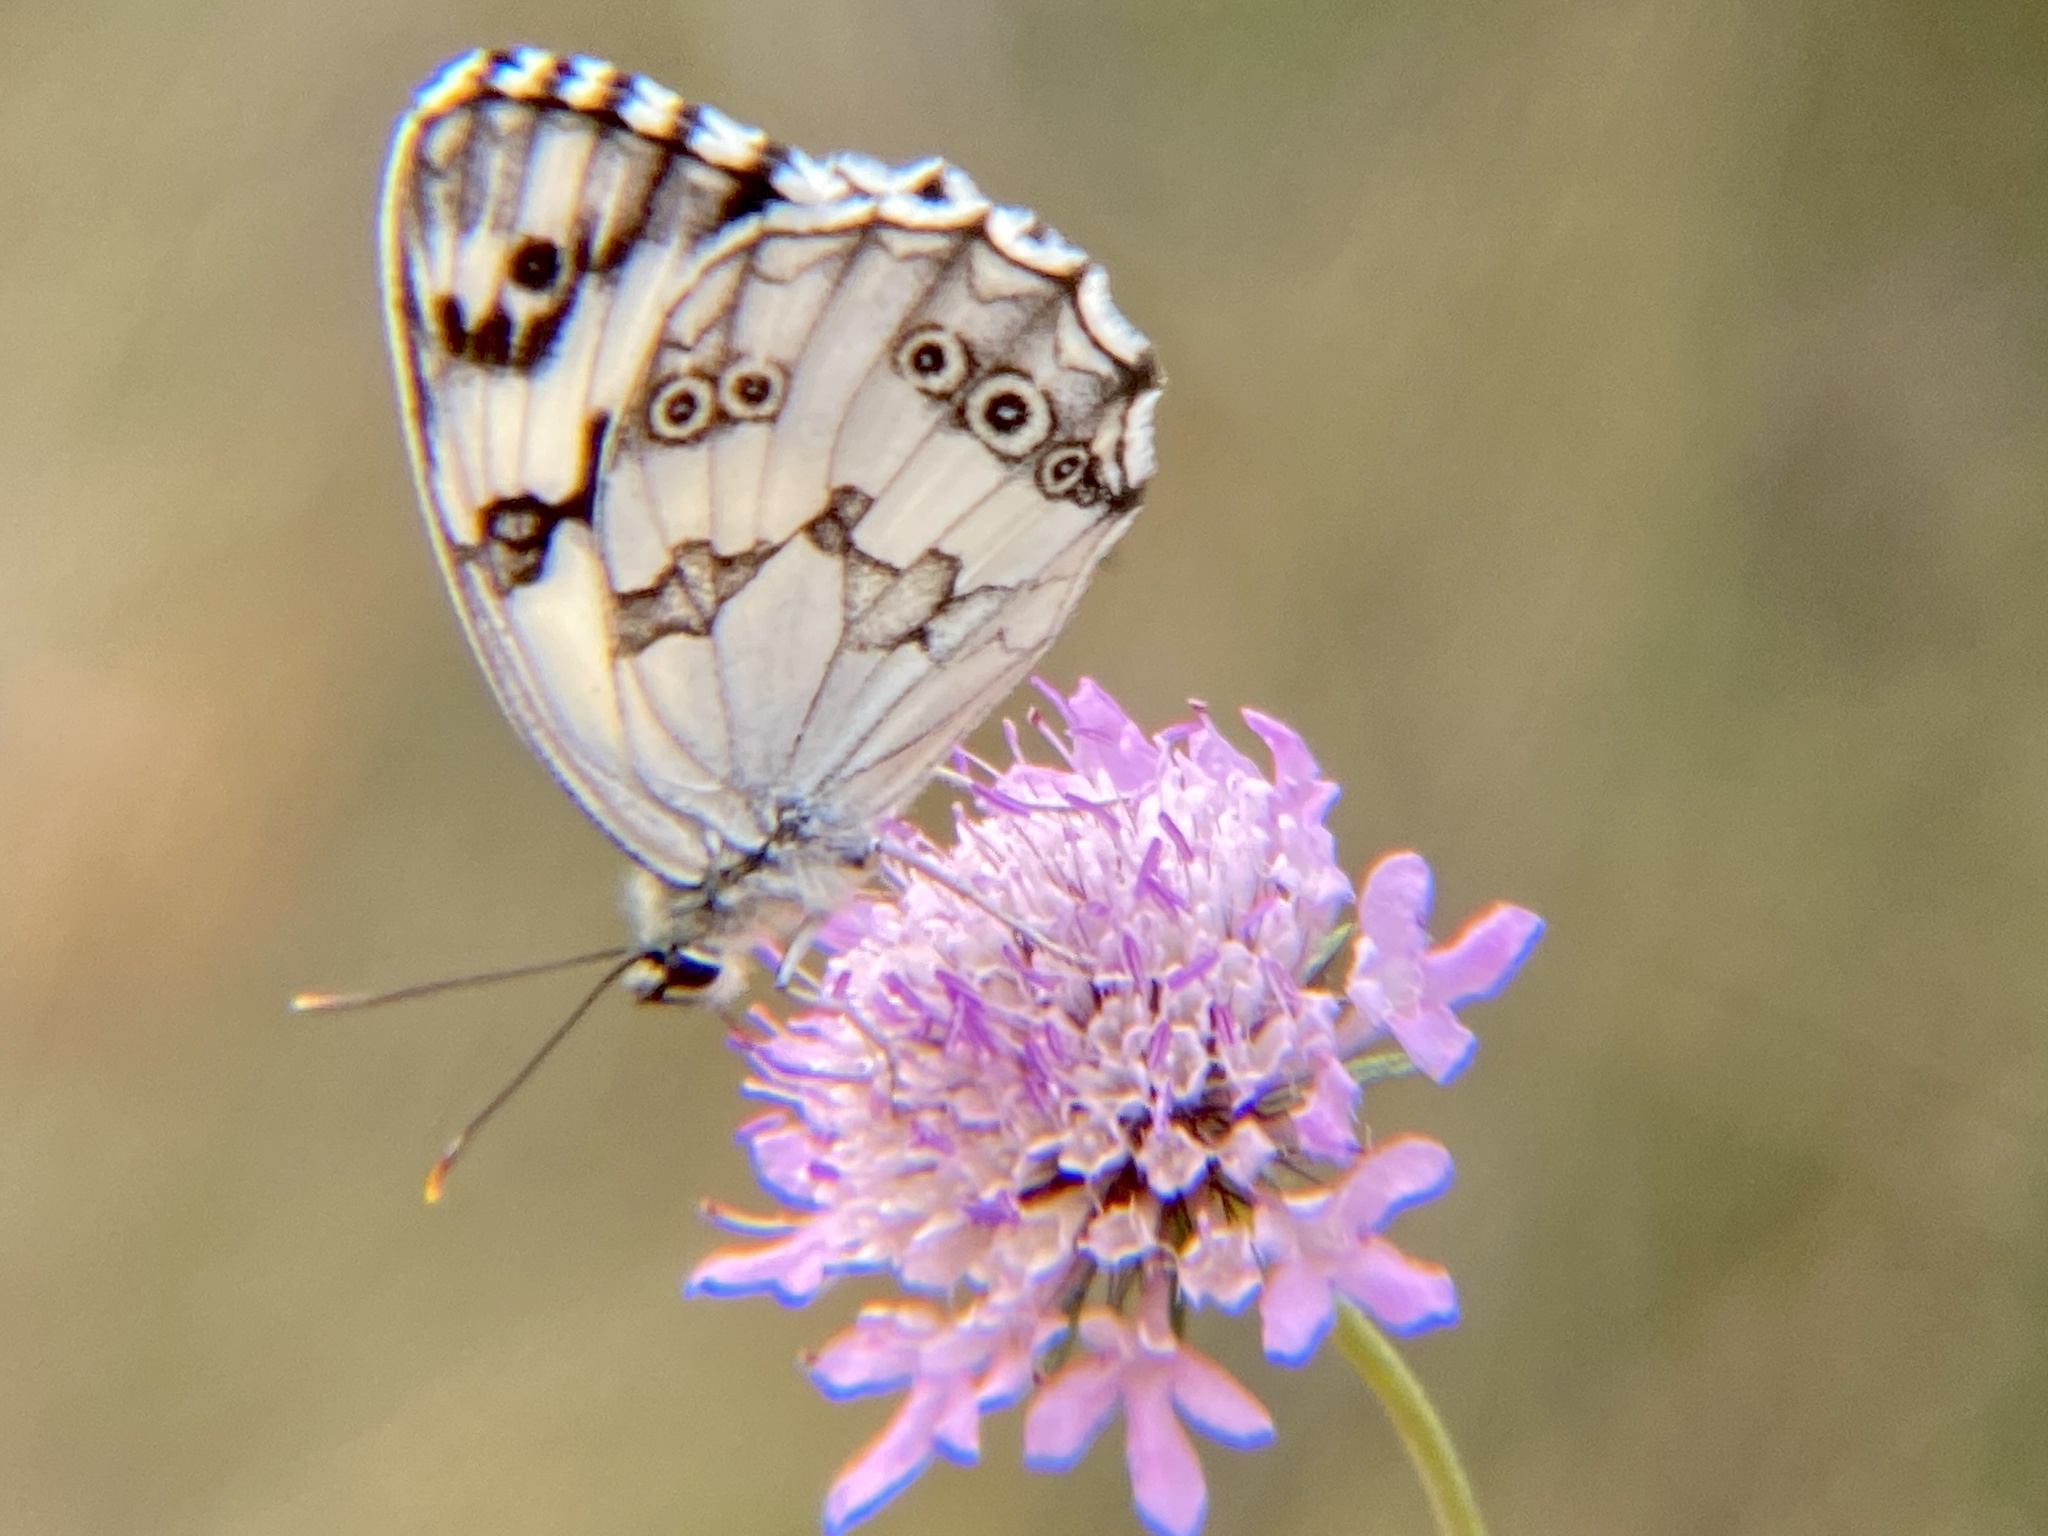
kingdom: Animalia
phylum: Arthropoda
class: Insecta
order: Lepidoptera
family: Nymphalidae
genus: Melanargia
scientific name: Melanargia lachesis
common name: Iberian marbled white
